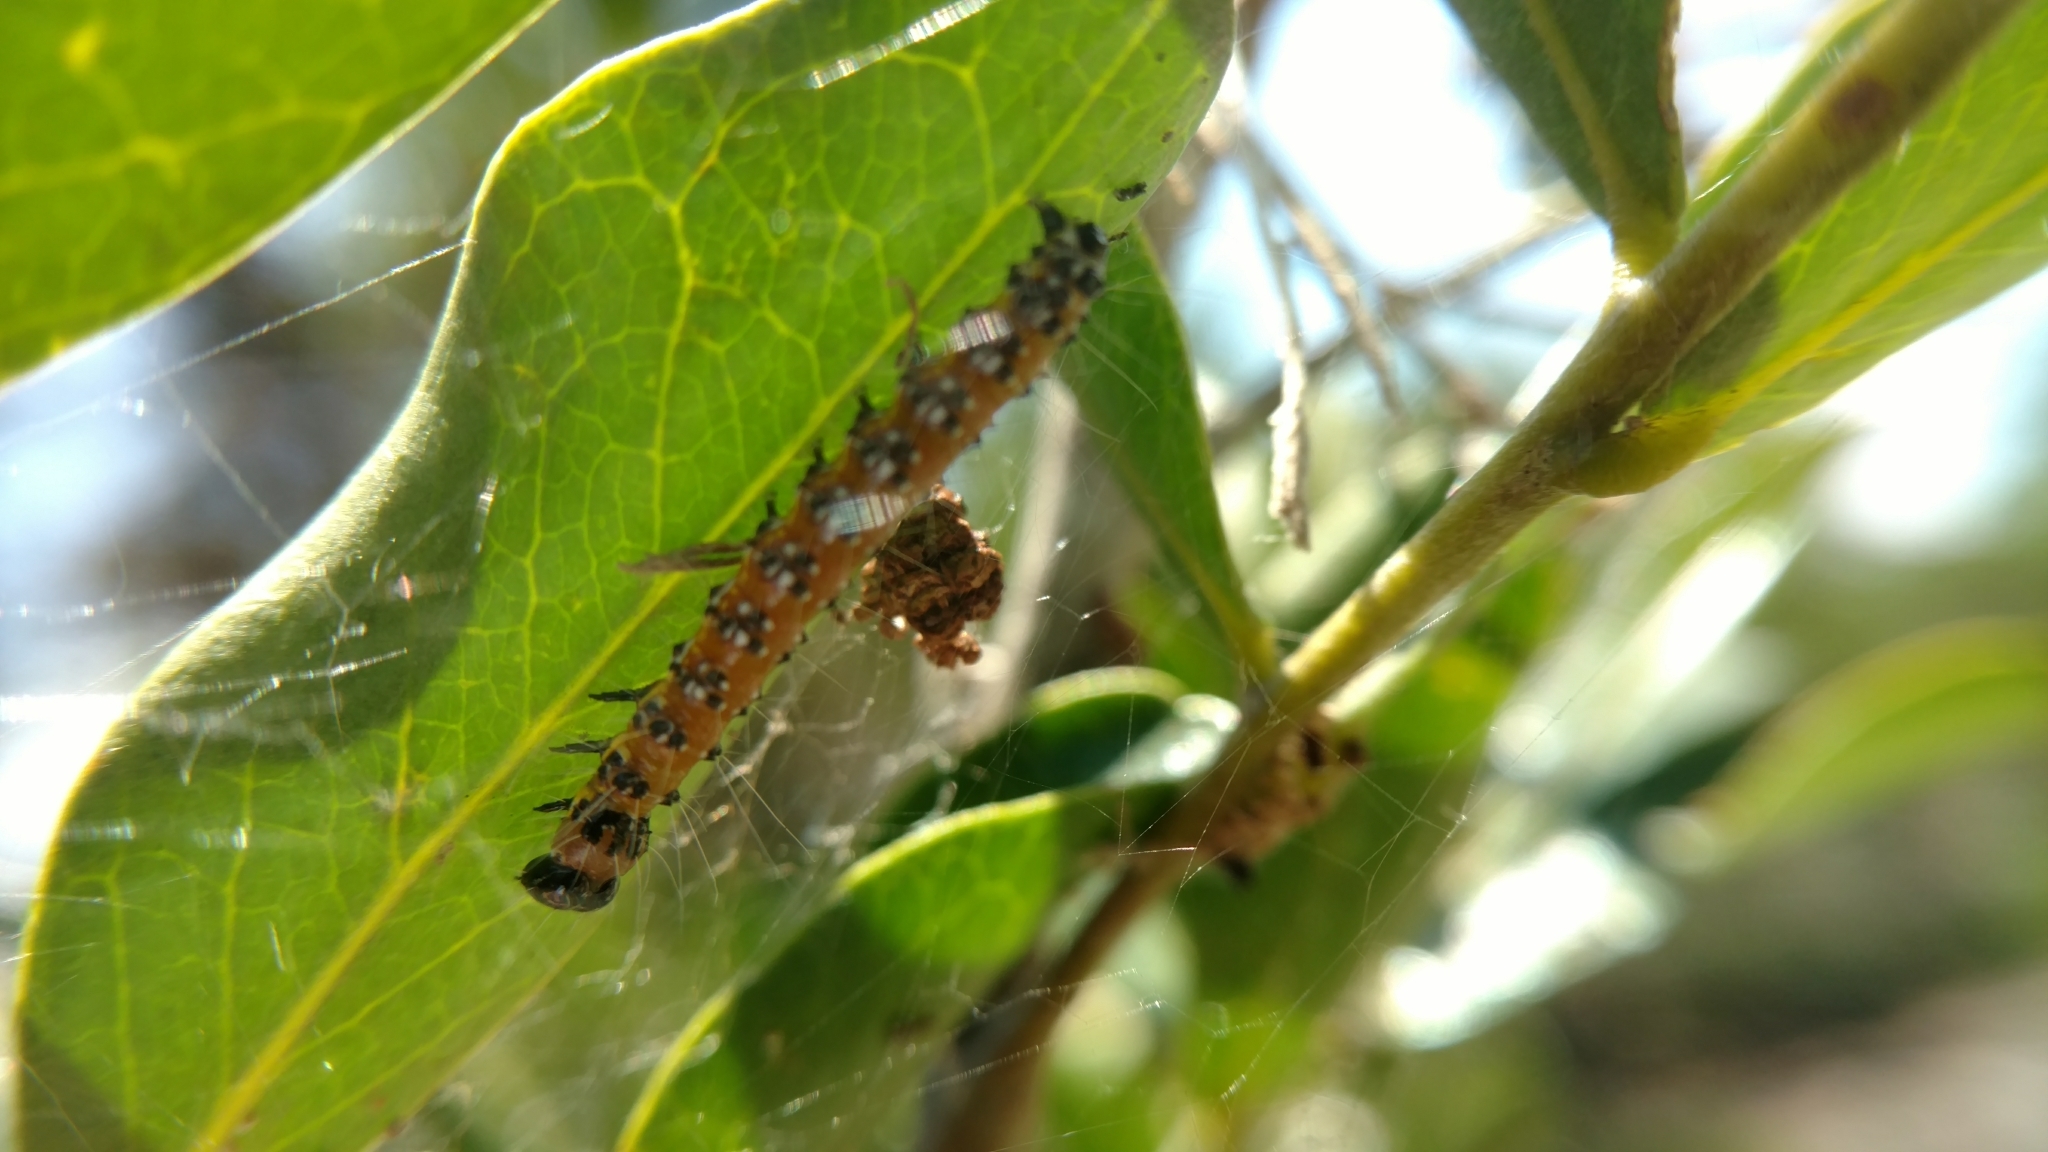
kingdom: Animalia
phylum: Arthropoda
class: Insecta
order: Lepidoptera
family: Crambidae
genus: Uresiphita
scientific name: Uresiphita reversalis
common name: Genista broom moth
